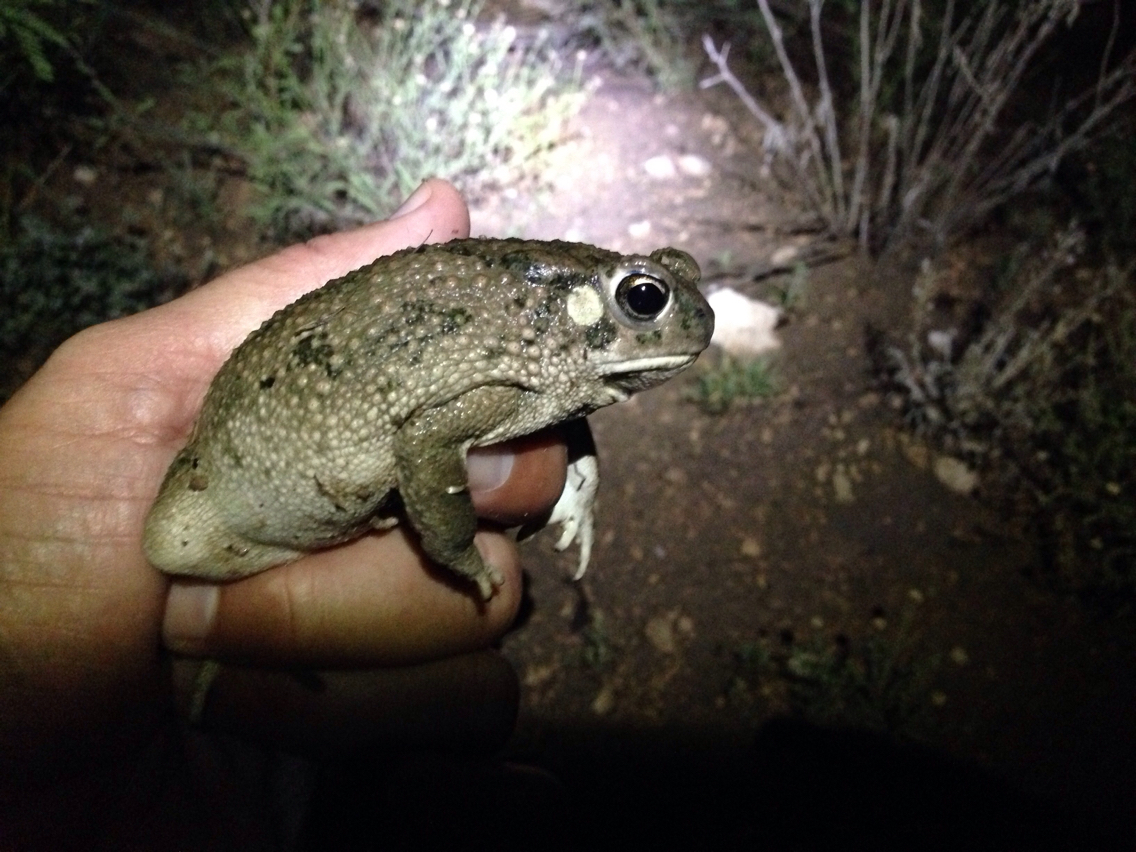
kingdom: Animalia
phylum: Chordata
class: Amphibia
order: Anura
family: Bufonidae
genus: Anaxyrus
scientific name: Anaxyrus speciosus
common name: Texas toad
